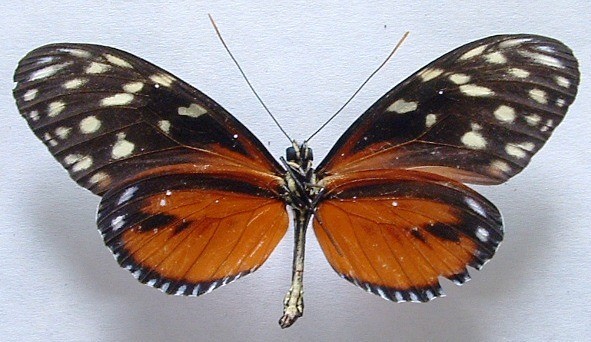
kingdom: Animalia
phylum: Arthropoda
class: Insecta
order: Lepidoptera
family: Nymphalidae
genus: Heliconius
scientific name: Heliconius hecale
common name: Tiger longwing
